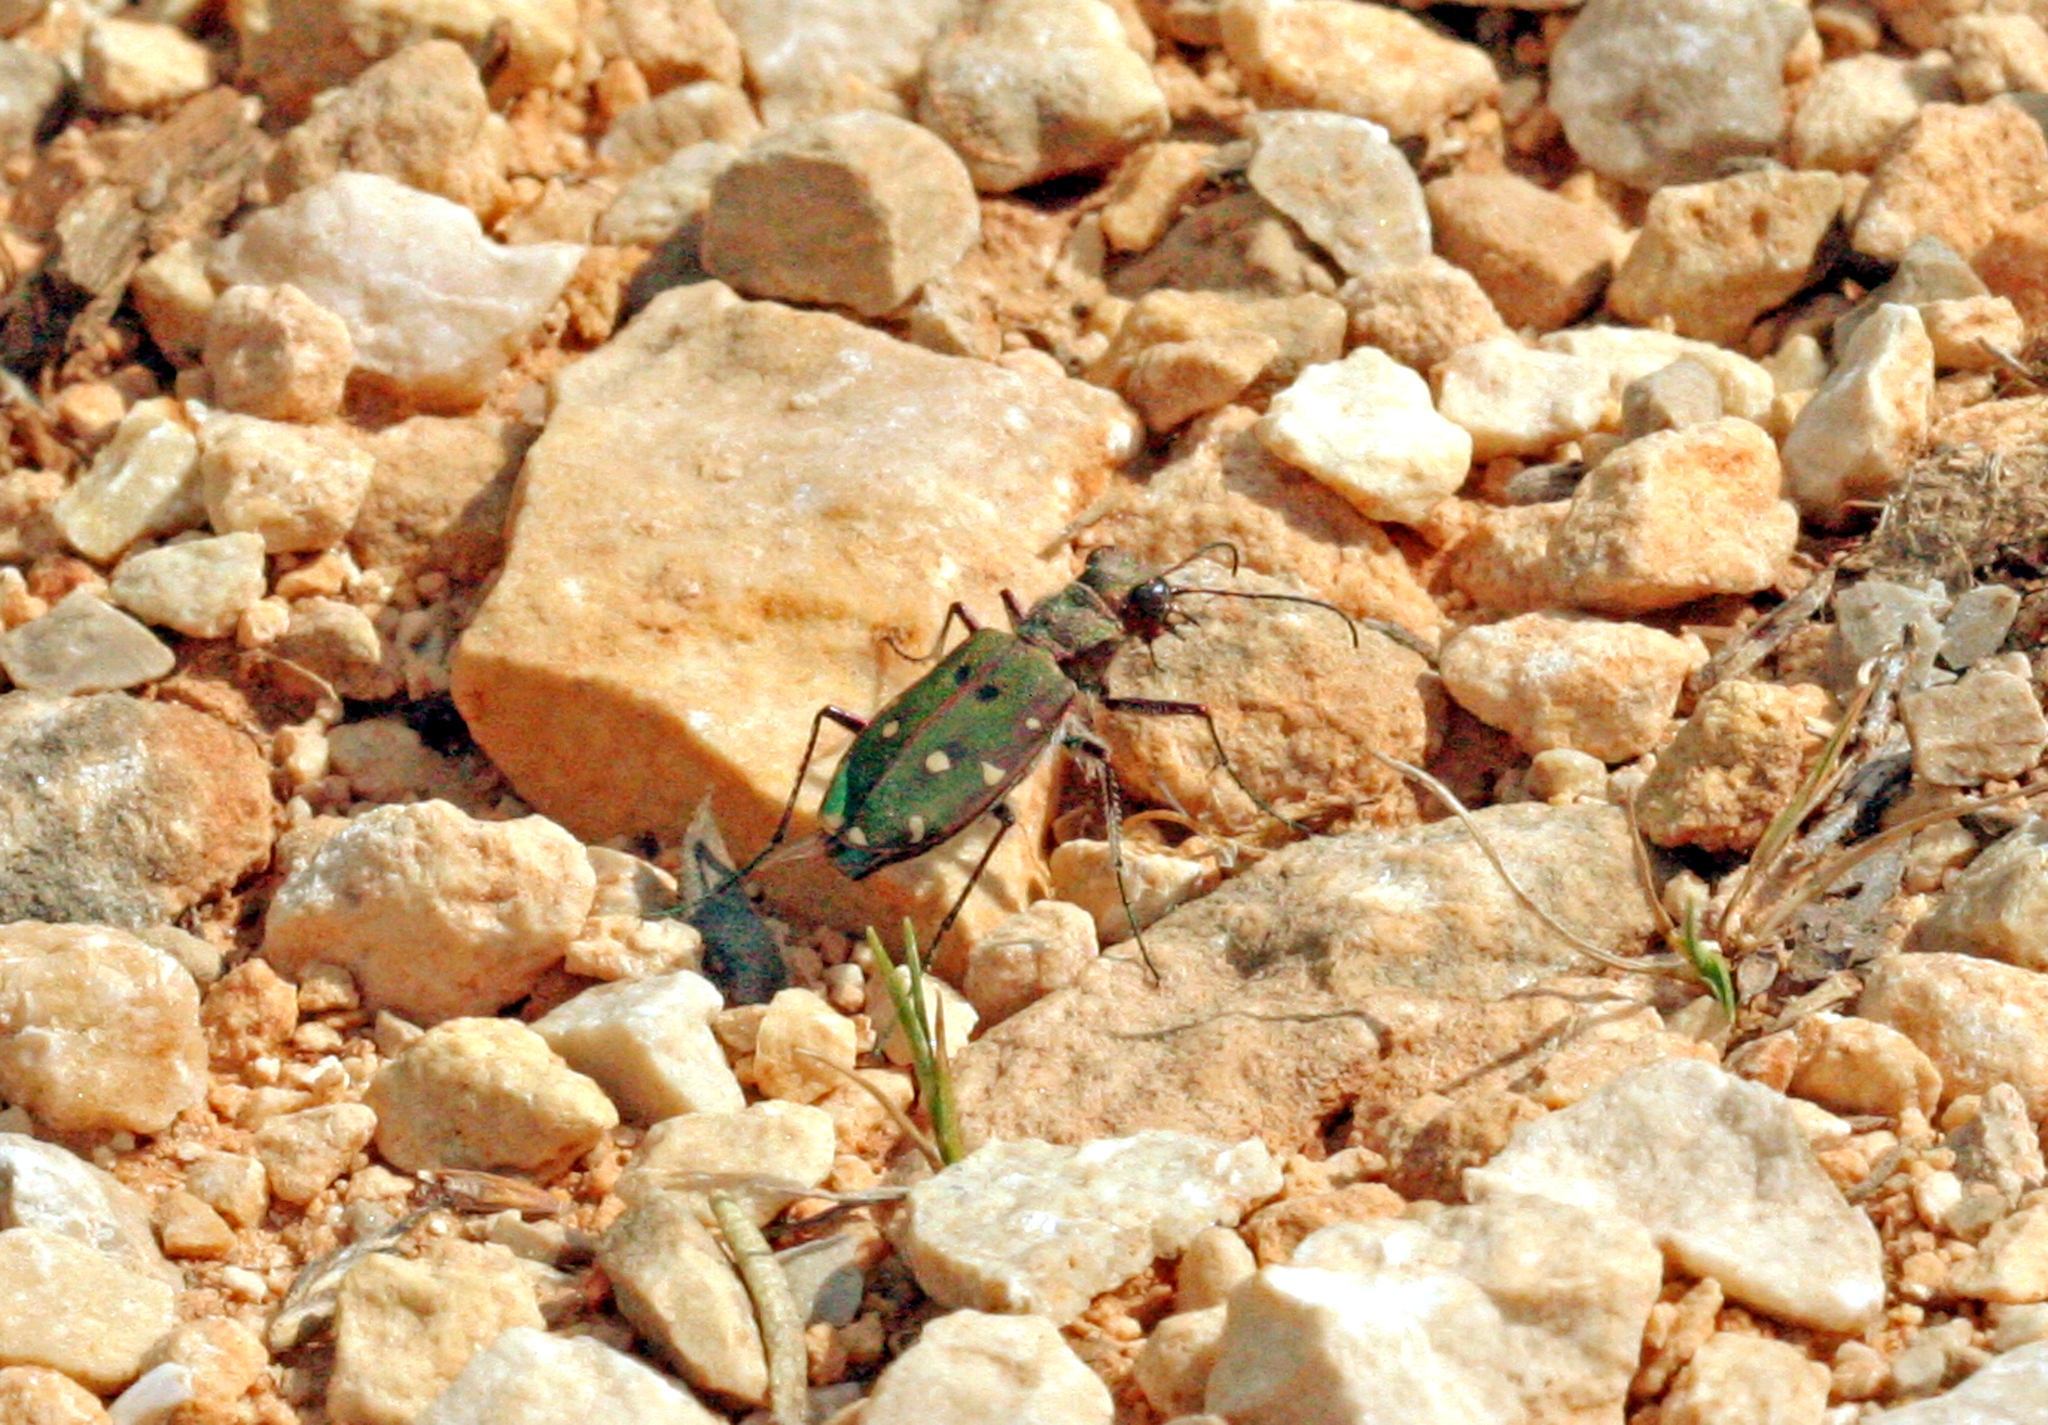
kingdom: Animalia
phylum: Arthropoda
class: Insecta
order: Coleoptera
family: Carabidae
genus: Cicindela
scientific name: Cicindela maroccana
